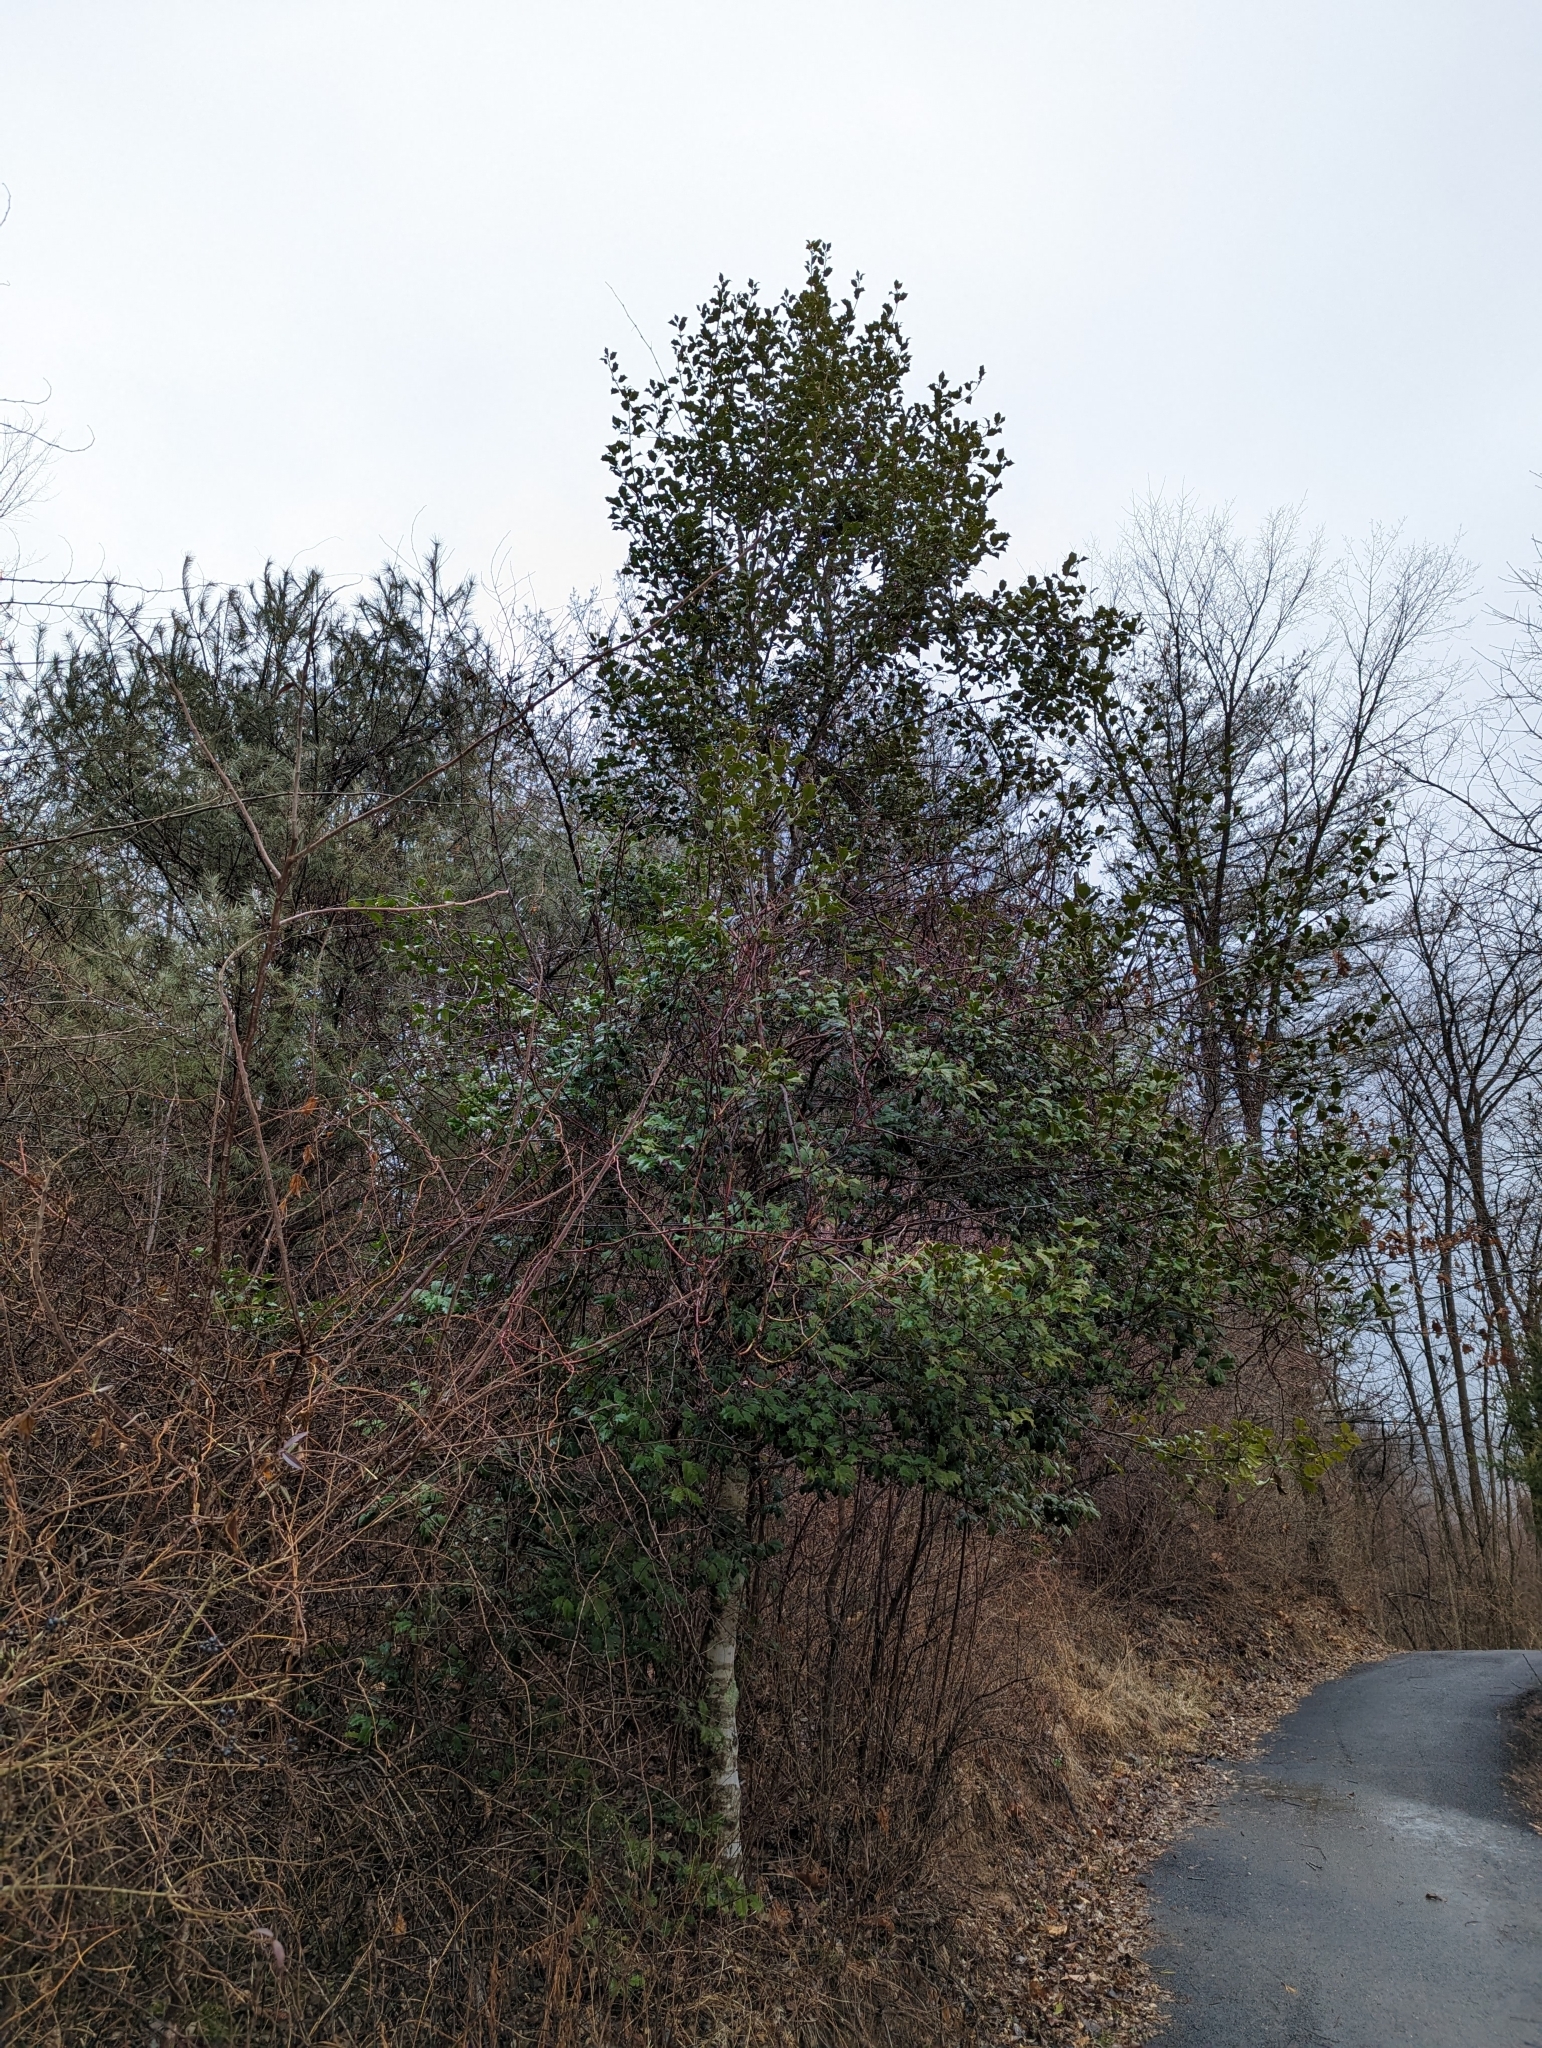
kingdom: Plantae
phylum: Tracheophyta
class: Magnoliopsida
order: Aquifoliales
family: Aquifoliaceae
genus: Ilex
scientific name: Ilex opaca
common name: American holly
